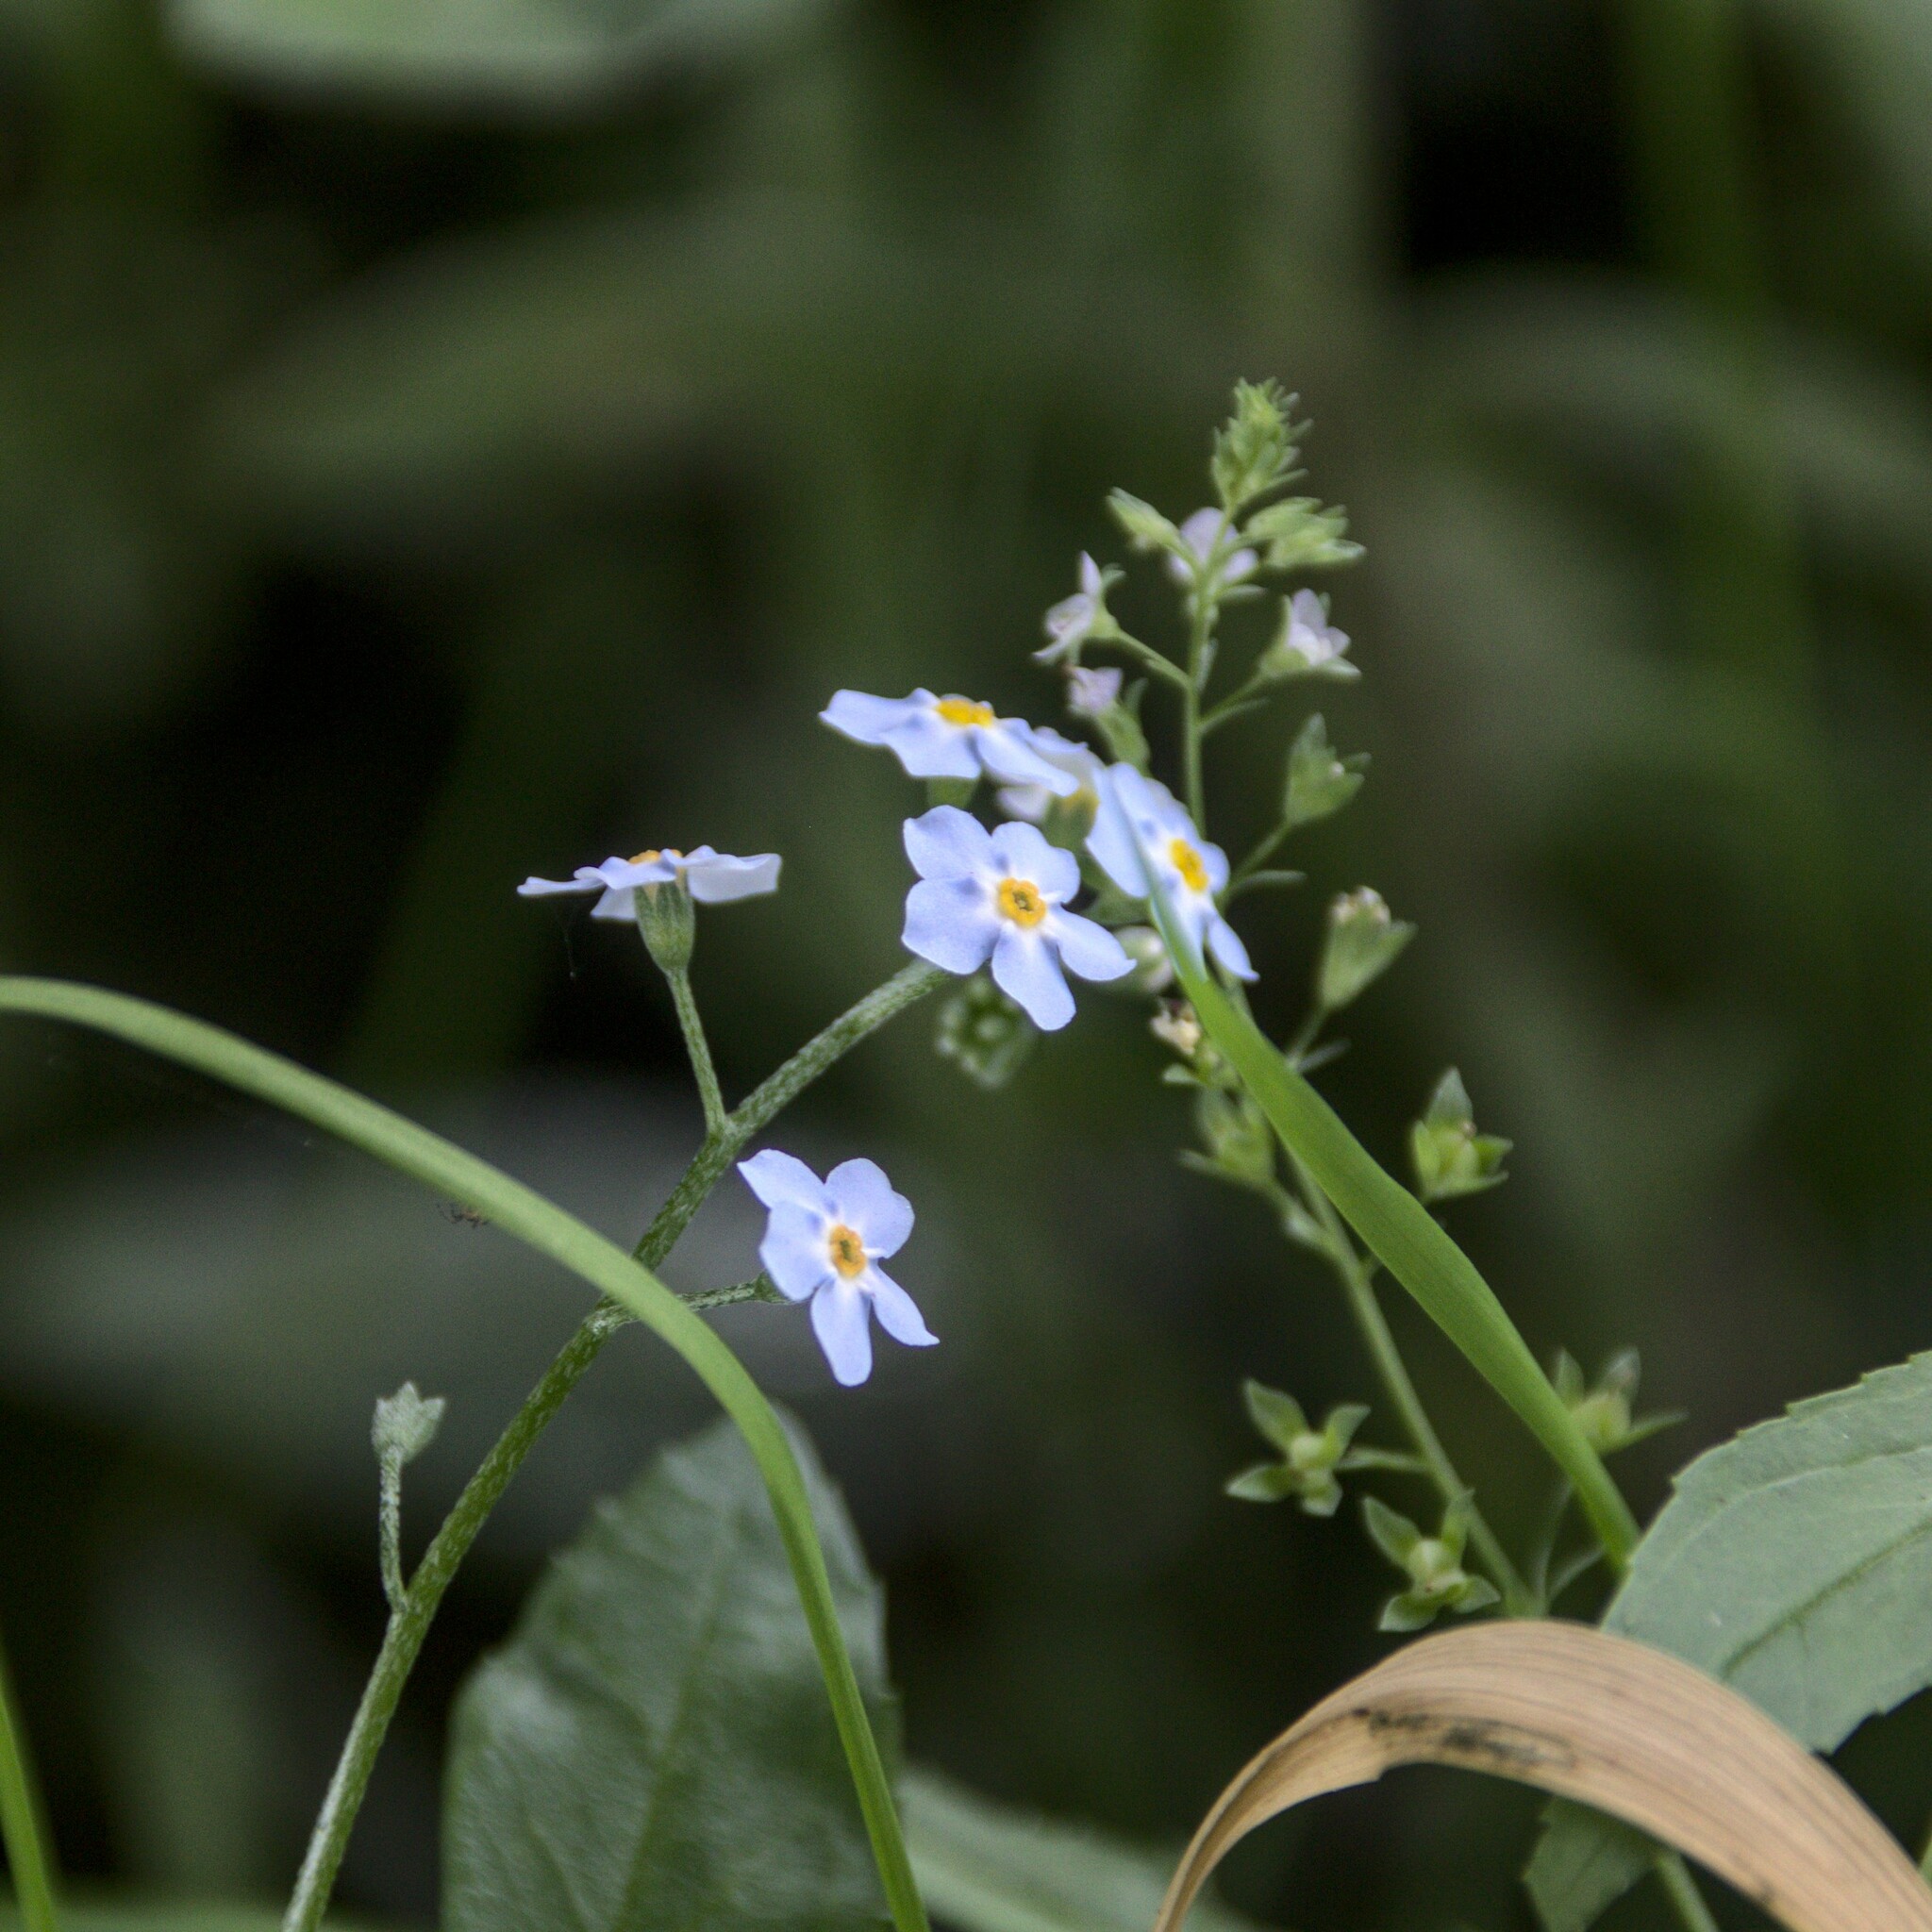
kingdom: Plantae
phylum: Tracheophyta
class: Magnoliopsida
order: Boraginales
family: Boraginaceae
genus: Myosotis
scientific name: Myosotis scorpioides
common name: Water forget-me-not
